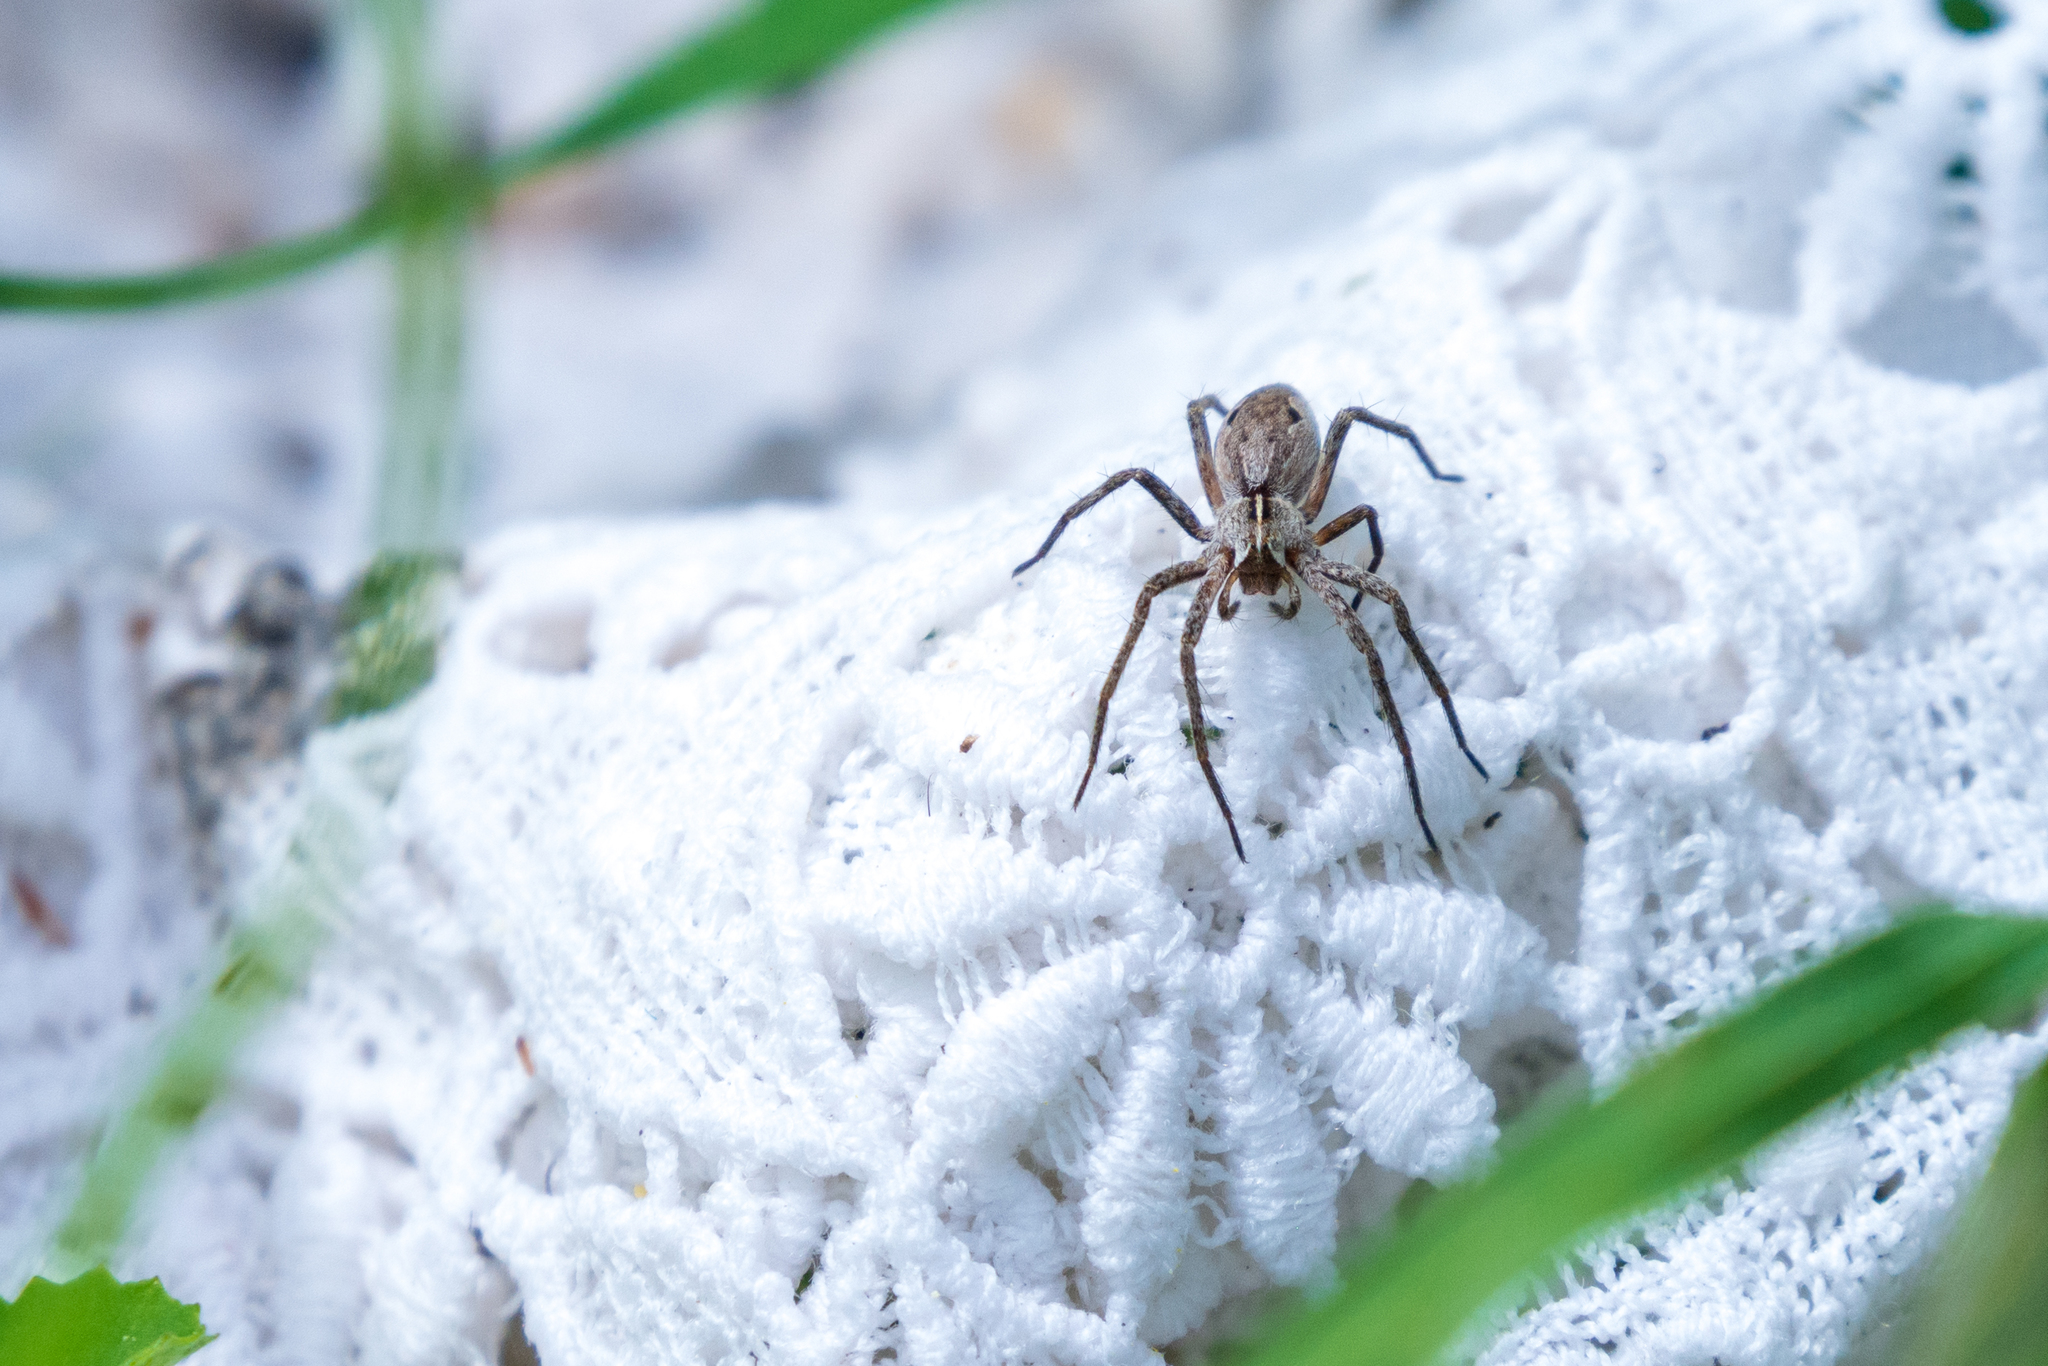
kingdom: Animalia
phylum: Arthropoda
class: Arachnida
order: Araneae
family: Pisauridae
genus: Pisaura
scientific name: Pisaura mirabilis
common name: Tent spider
